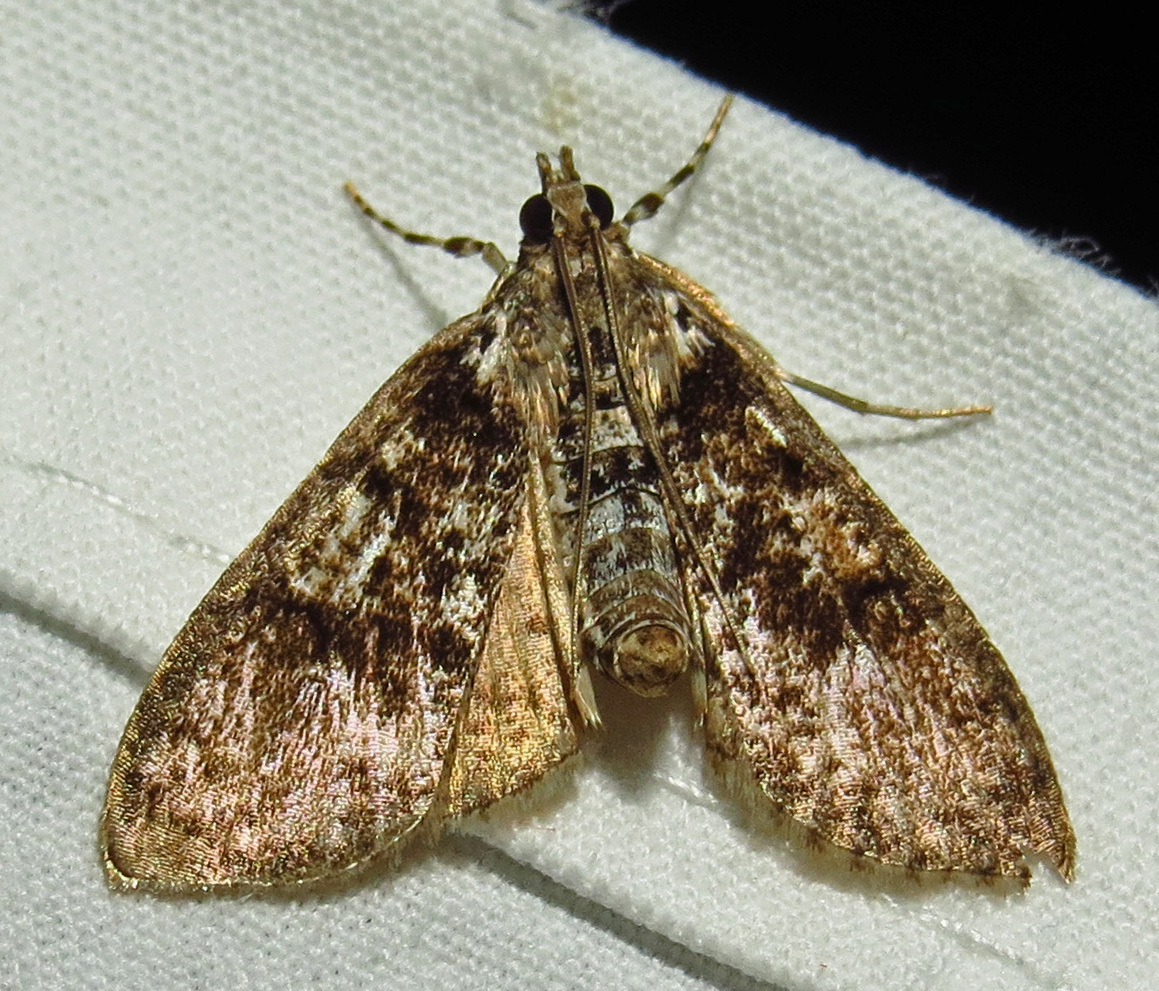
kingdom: Animalia
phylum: Arthropoda
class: Insecta
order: Lepidoptera
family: Crambidae
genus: Palpita
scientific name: Palpita magniferalis
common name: Splendid palpita moth
